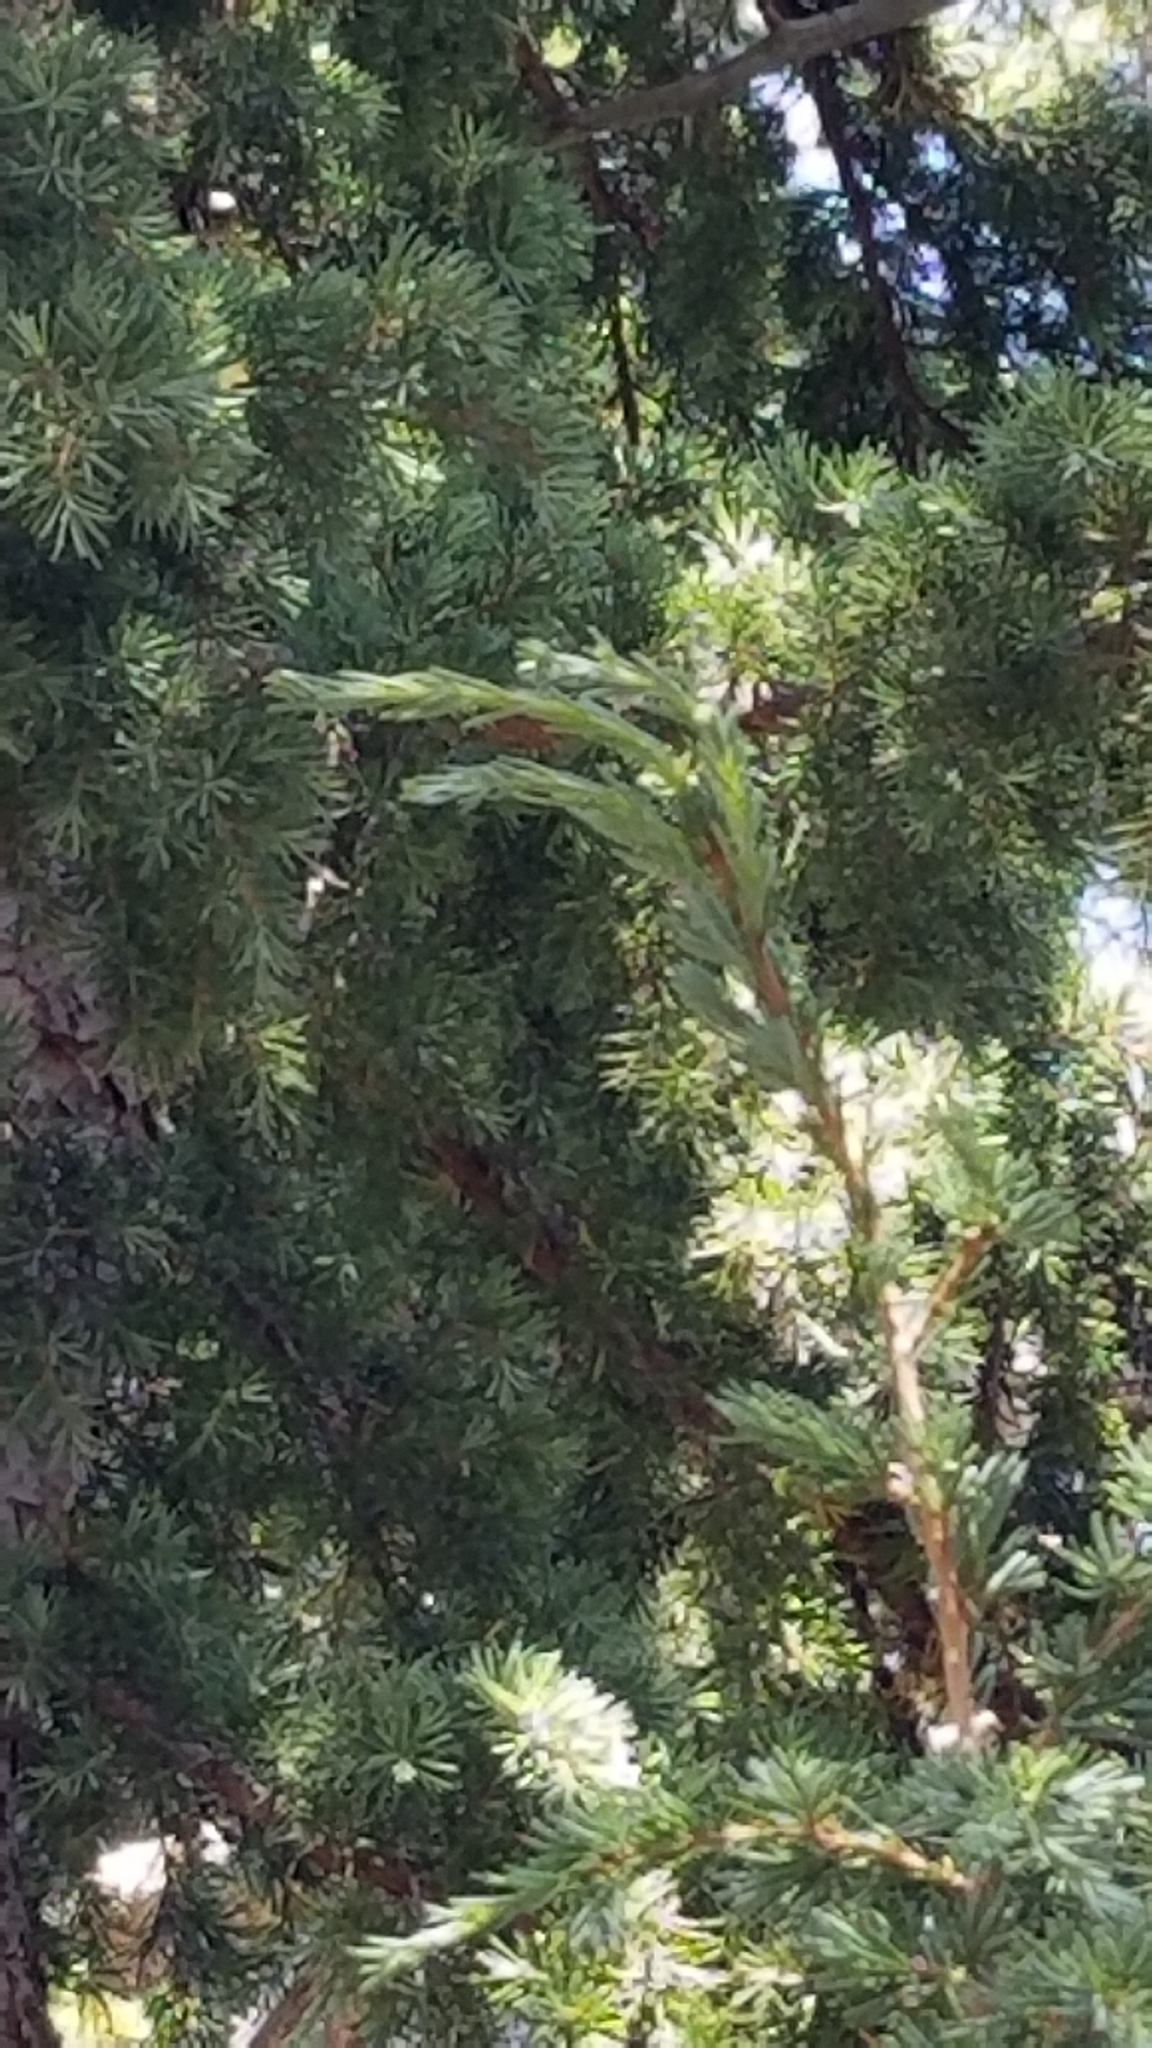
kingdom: Plantae
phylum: Tracheophyta
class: Pinopsida
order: Pinales
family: Pinaceae
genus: Tsuga
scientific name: Tsuga mertensiana
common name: Mountain hemlock
